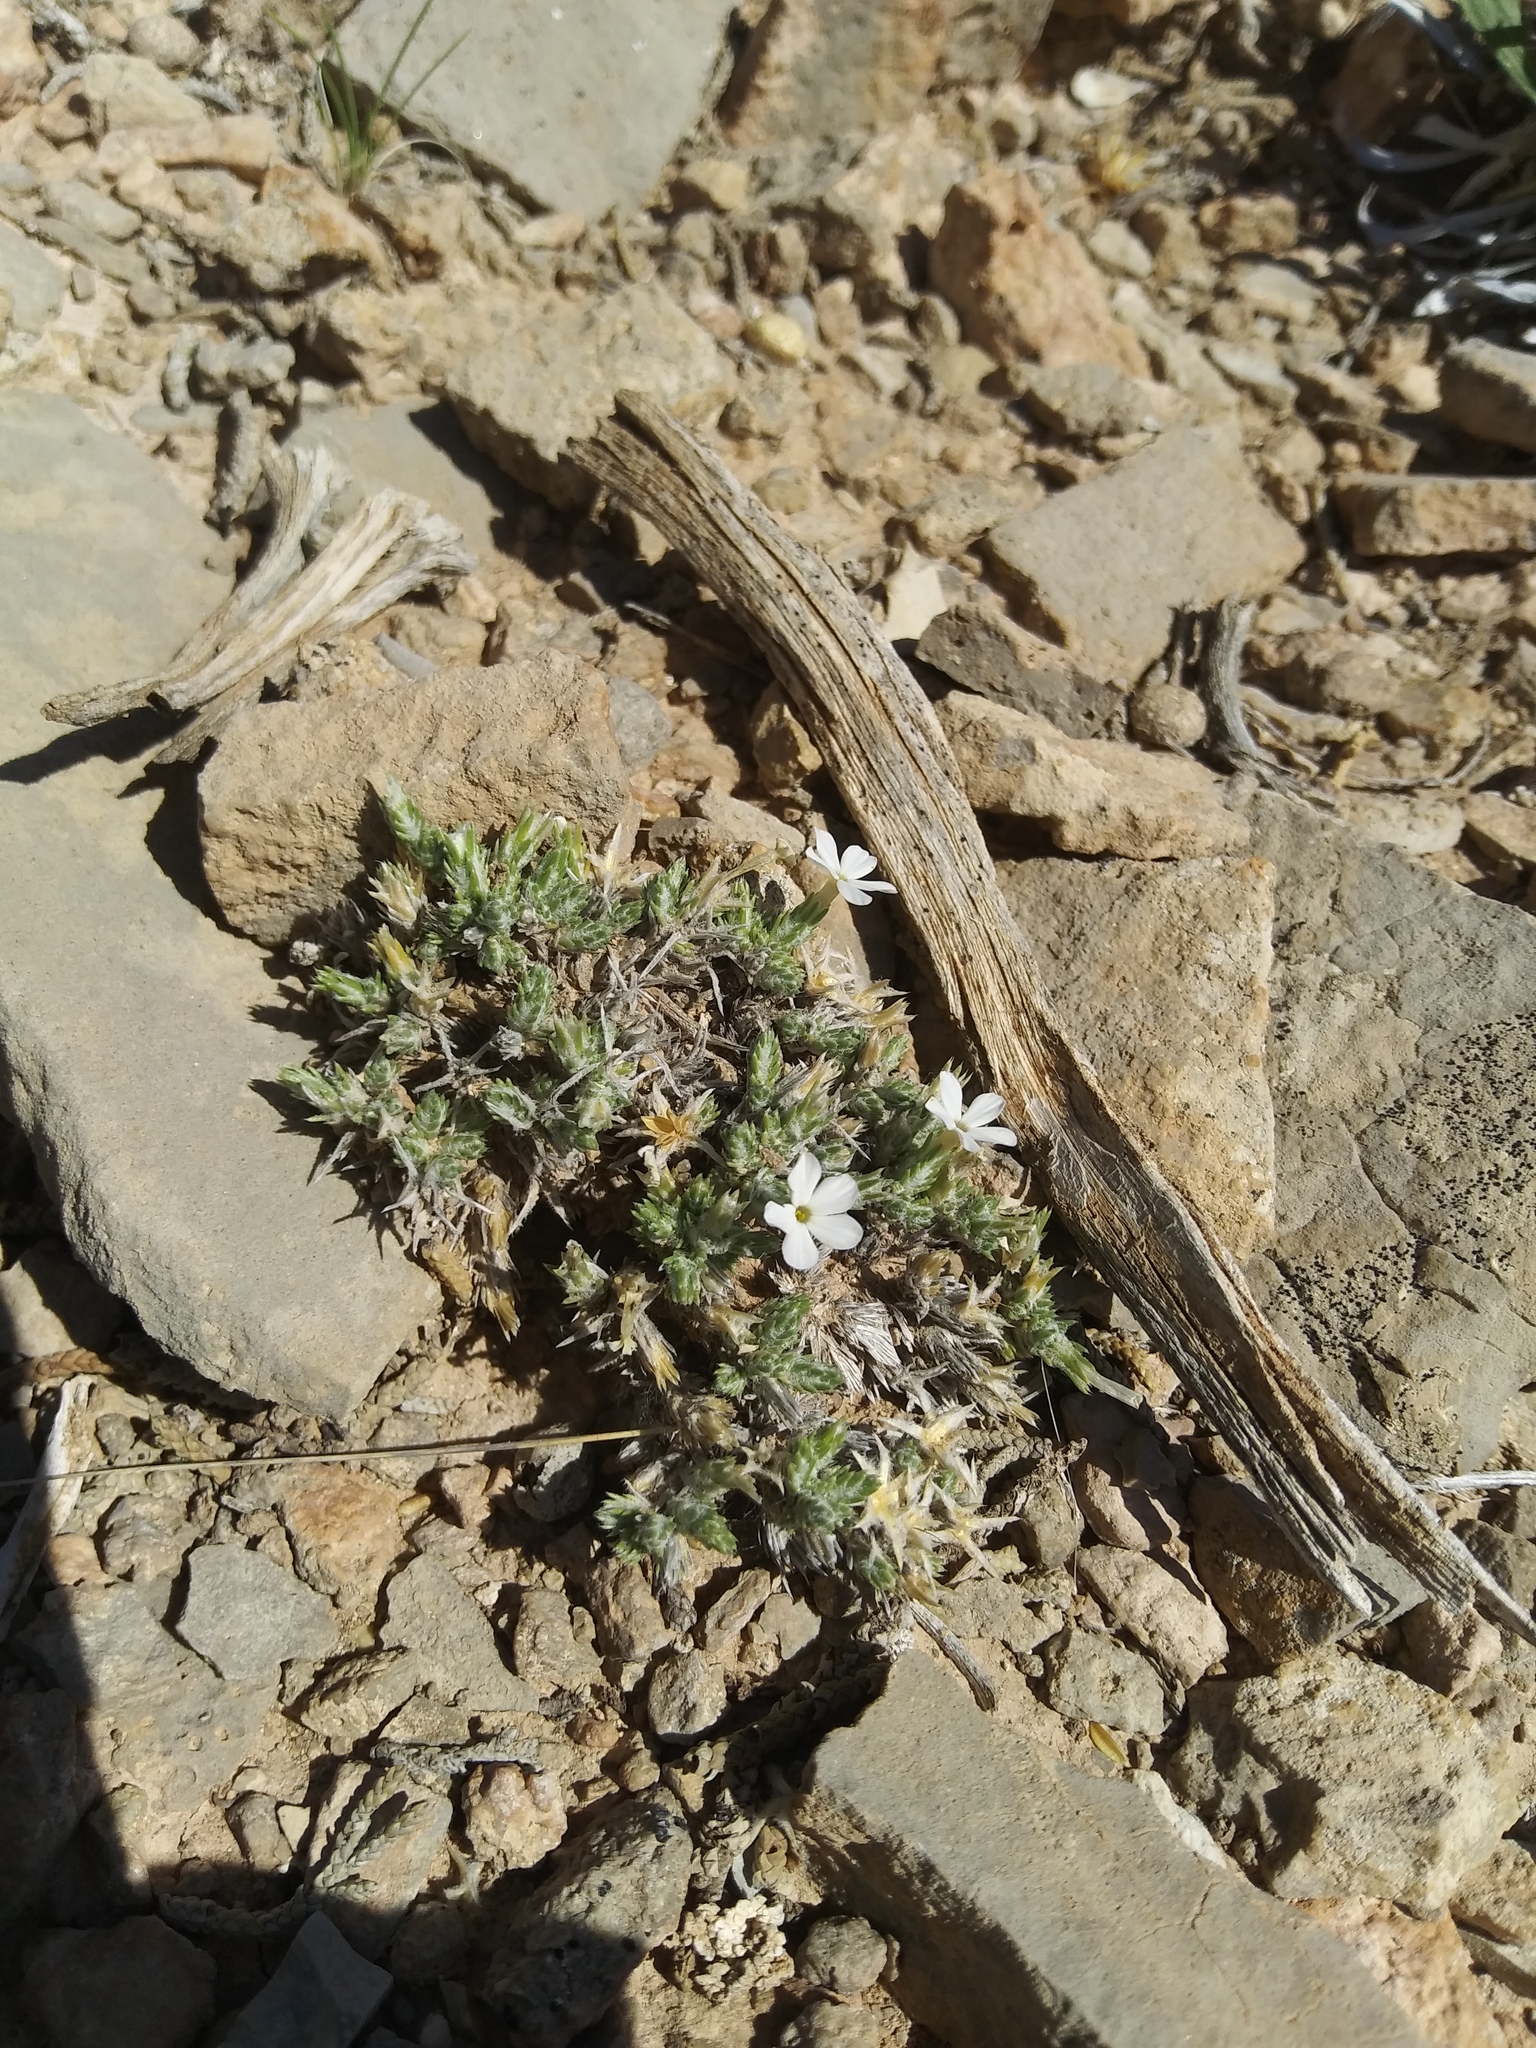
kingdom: Plantae
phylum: Tracheophyta
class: Magnoliopsida
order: Ericales
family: Polemoniaceae
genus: Phlox
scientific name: Phlox hoodii
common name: Moss phlox
